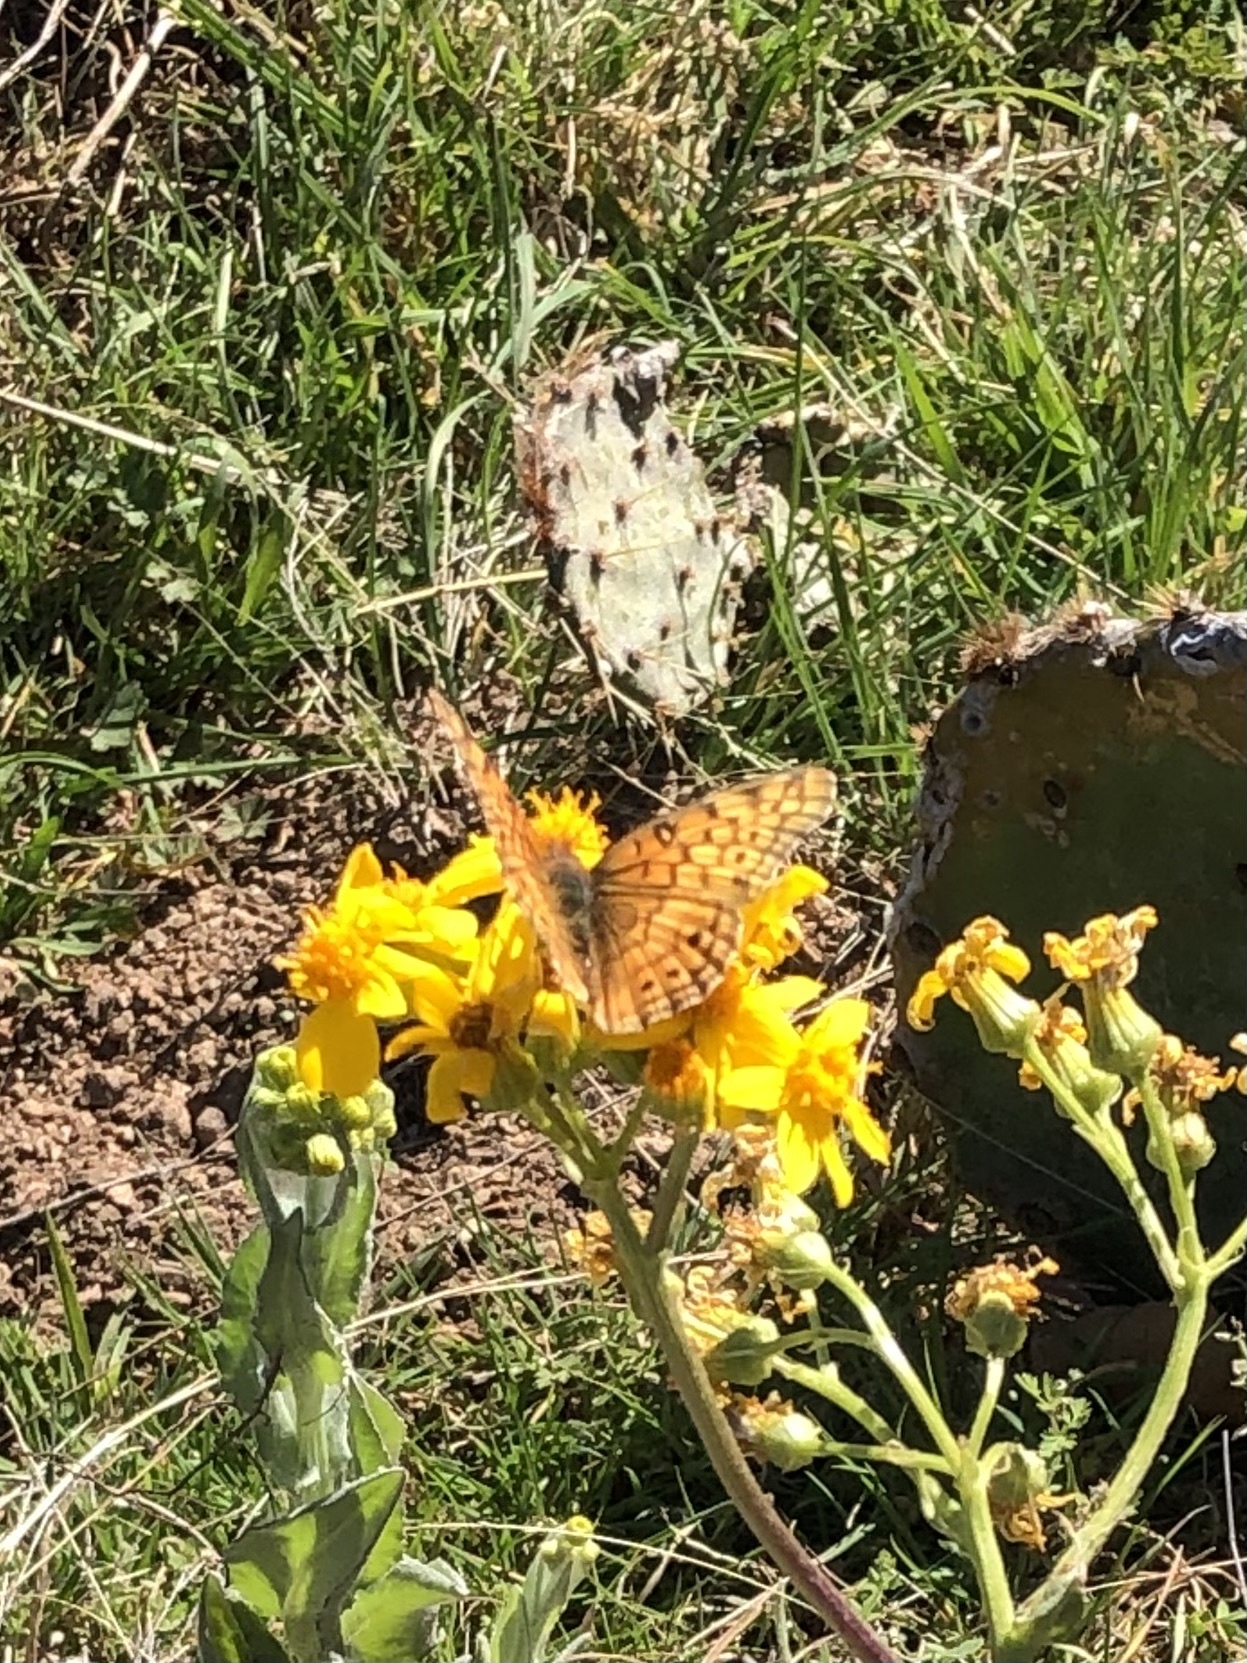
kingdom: Animalia
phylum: Arthropoda
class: Insecta
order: Lepidoptera
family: Nymphalidae
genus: Euptoieta
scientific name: Euptoieta claudia
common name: Variegated fritillary
